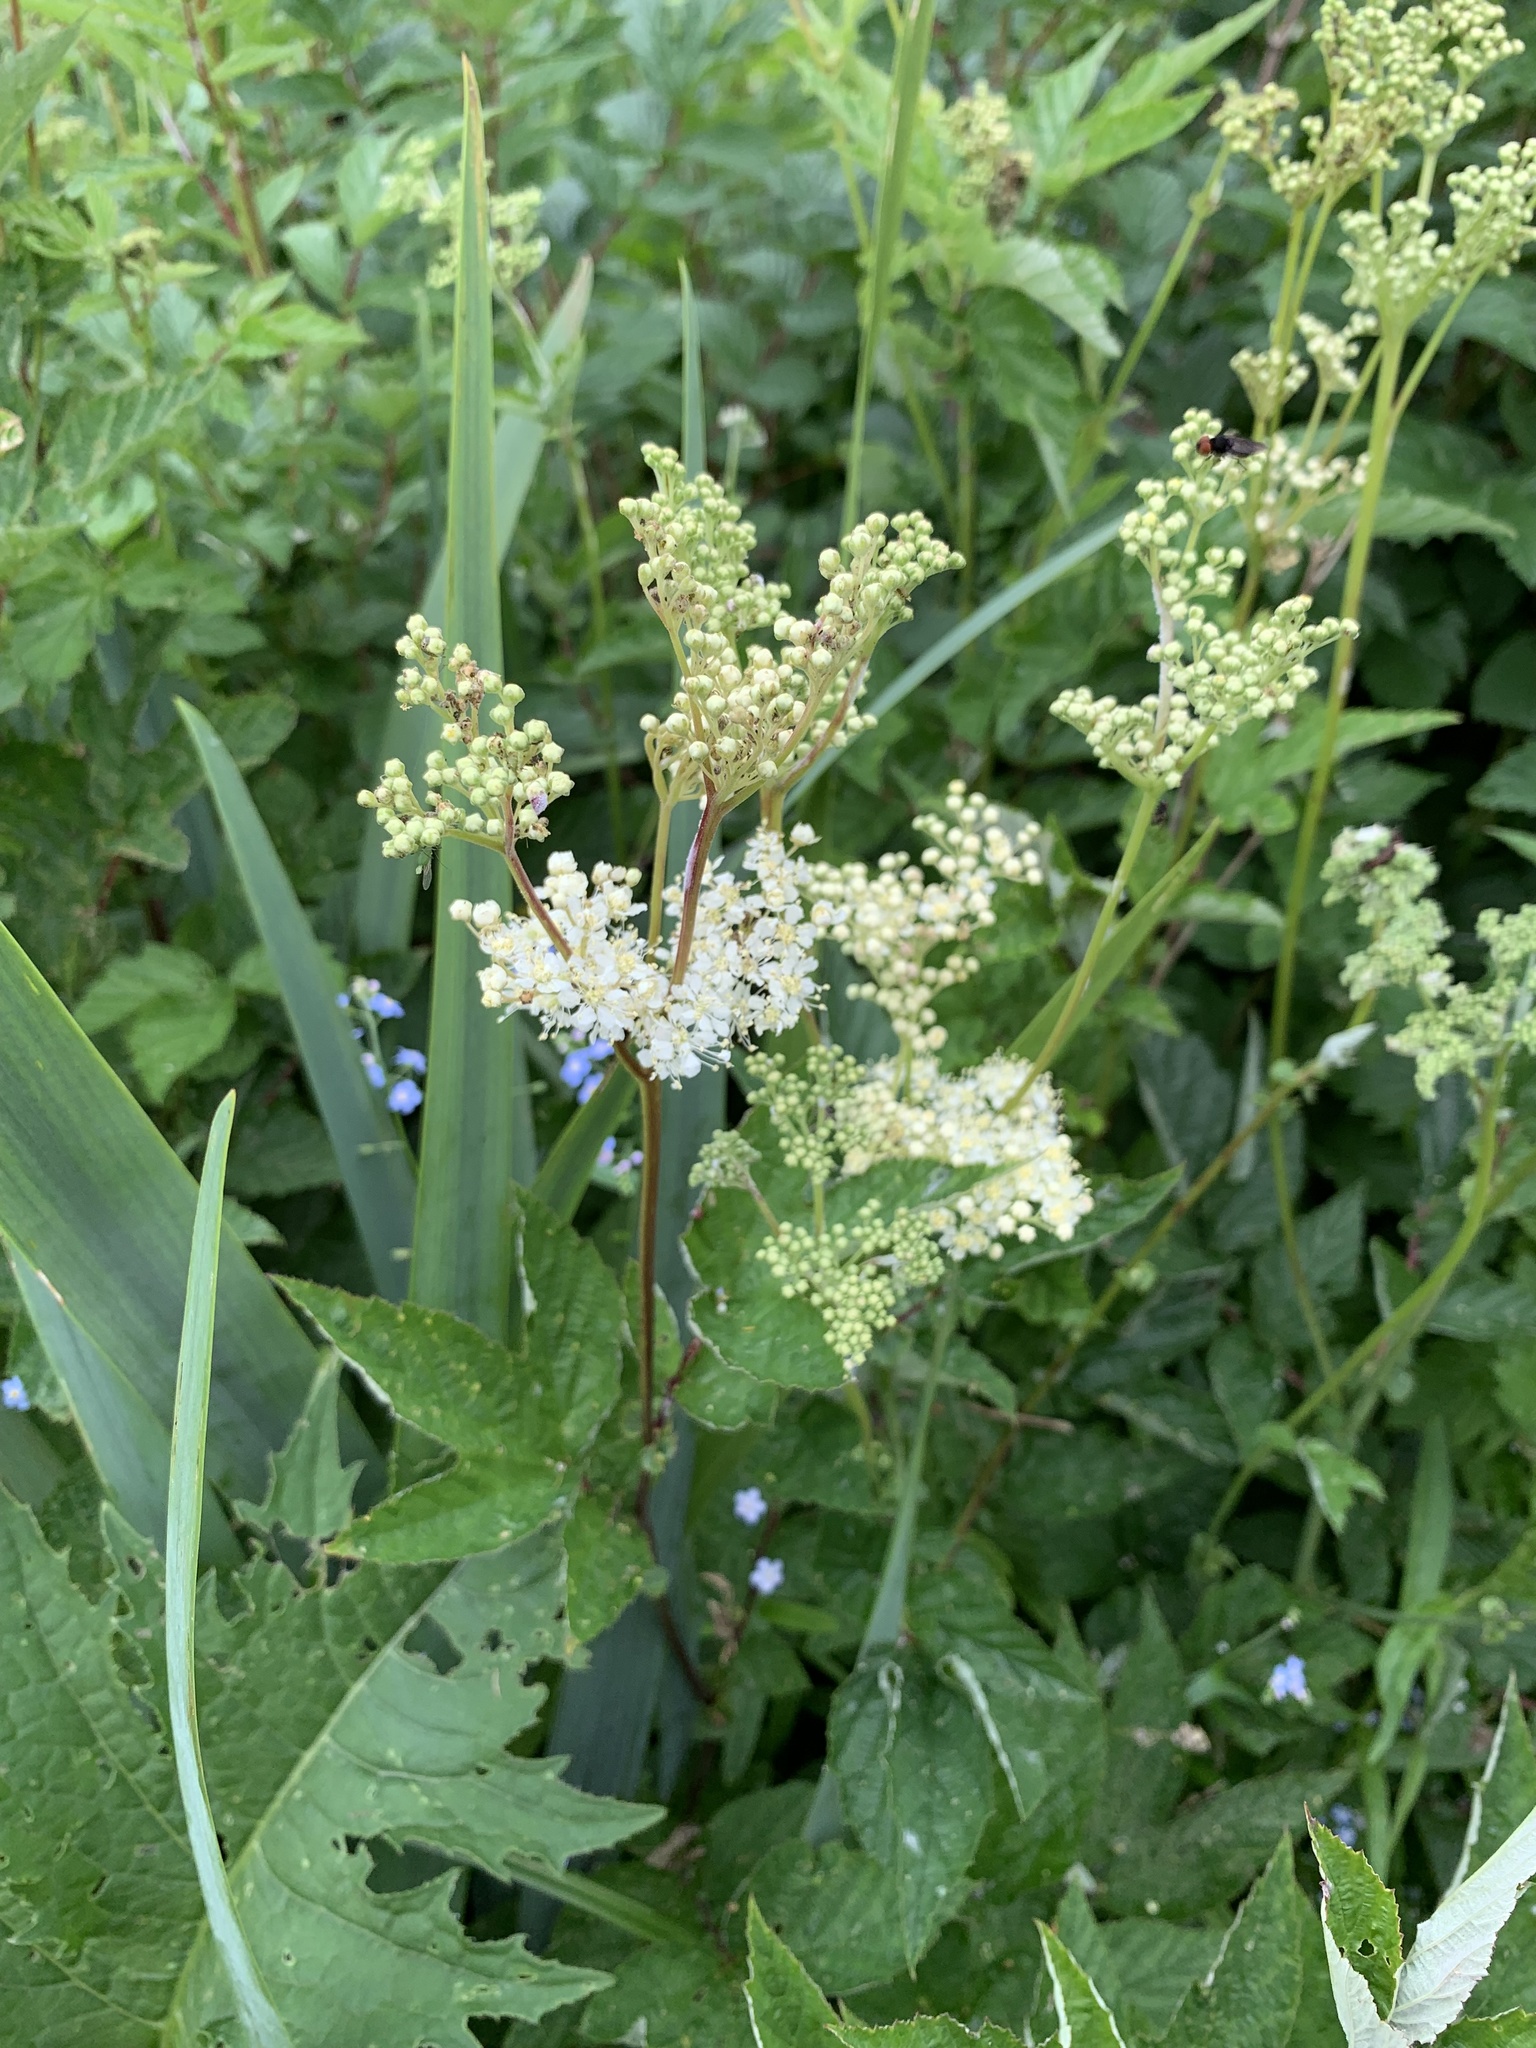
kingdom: Plantae
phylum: Tracheophyta
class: Magnoliopsida
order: Rosales
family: Rosaceae
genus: Filipendula
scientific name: Filipendula ulmaria
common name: Meadowsweet
